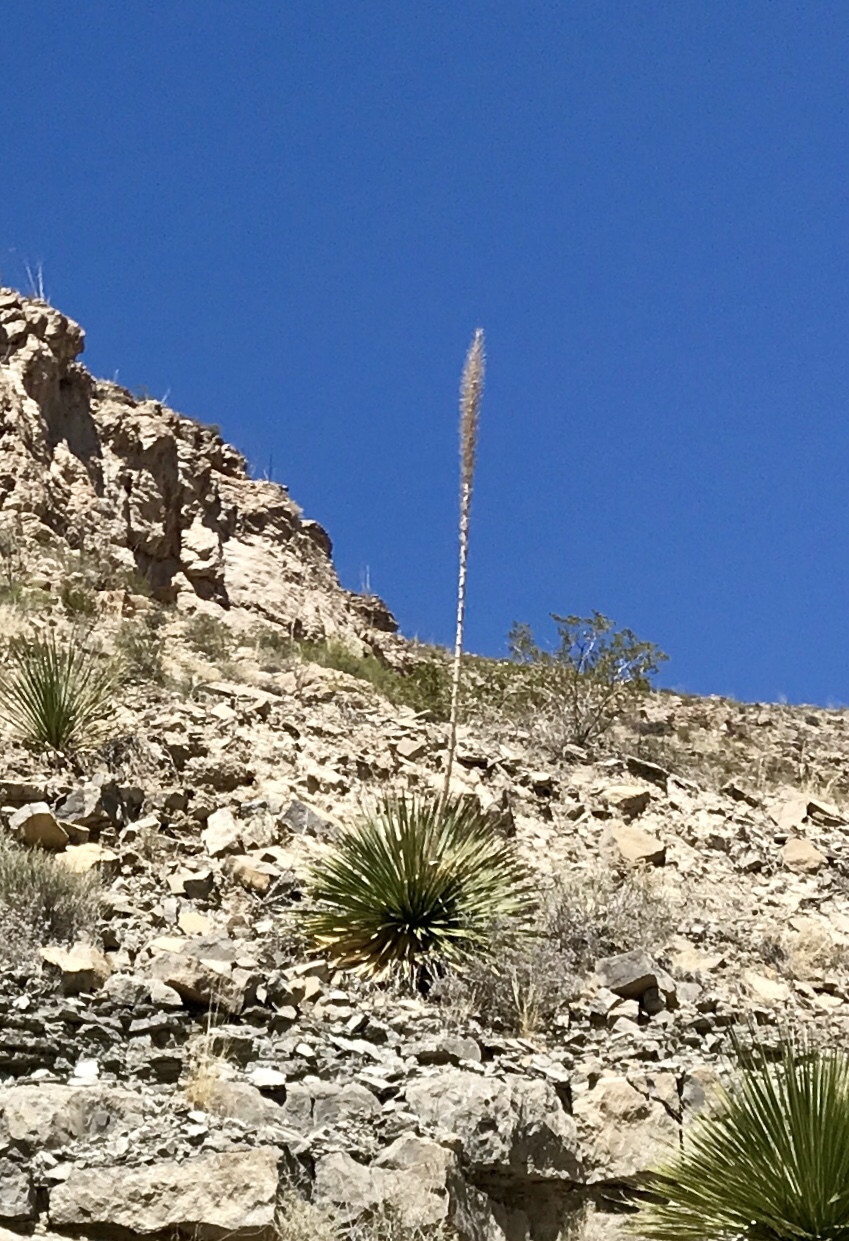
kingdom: Plantae
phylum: Tracheophyta
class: Liliopsida
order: Asparagales
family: Asparagaceae
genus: Dasylirion
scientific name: Dasylirion wheeleri
